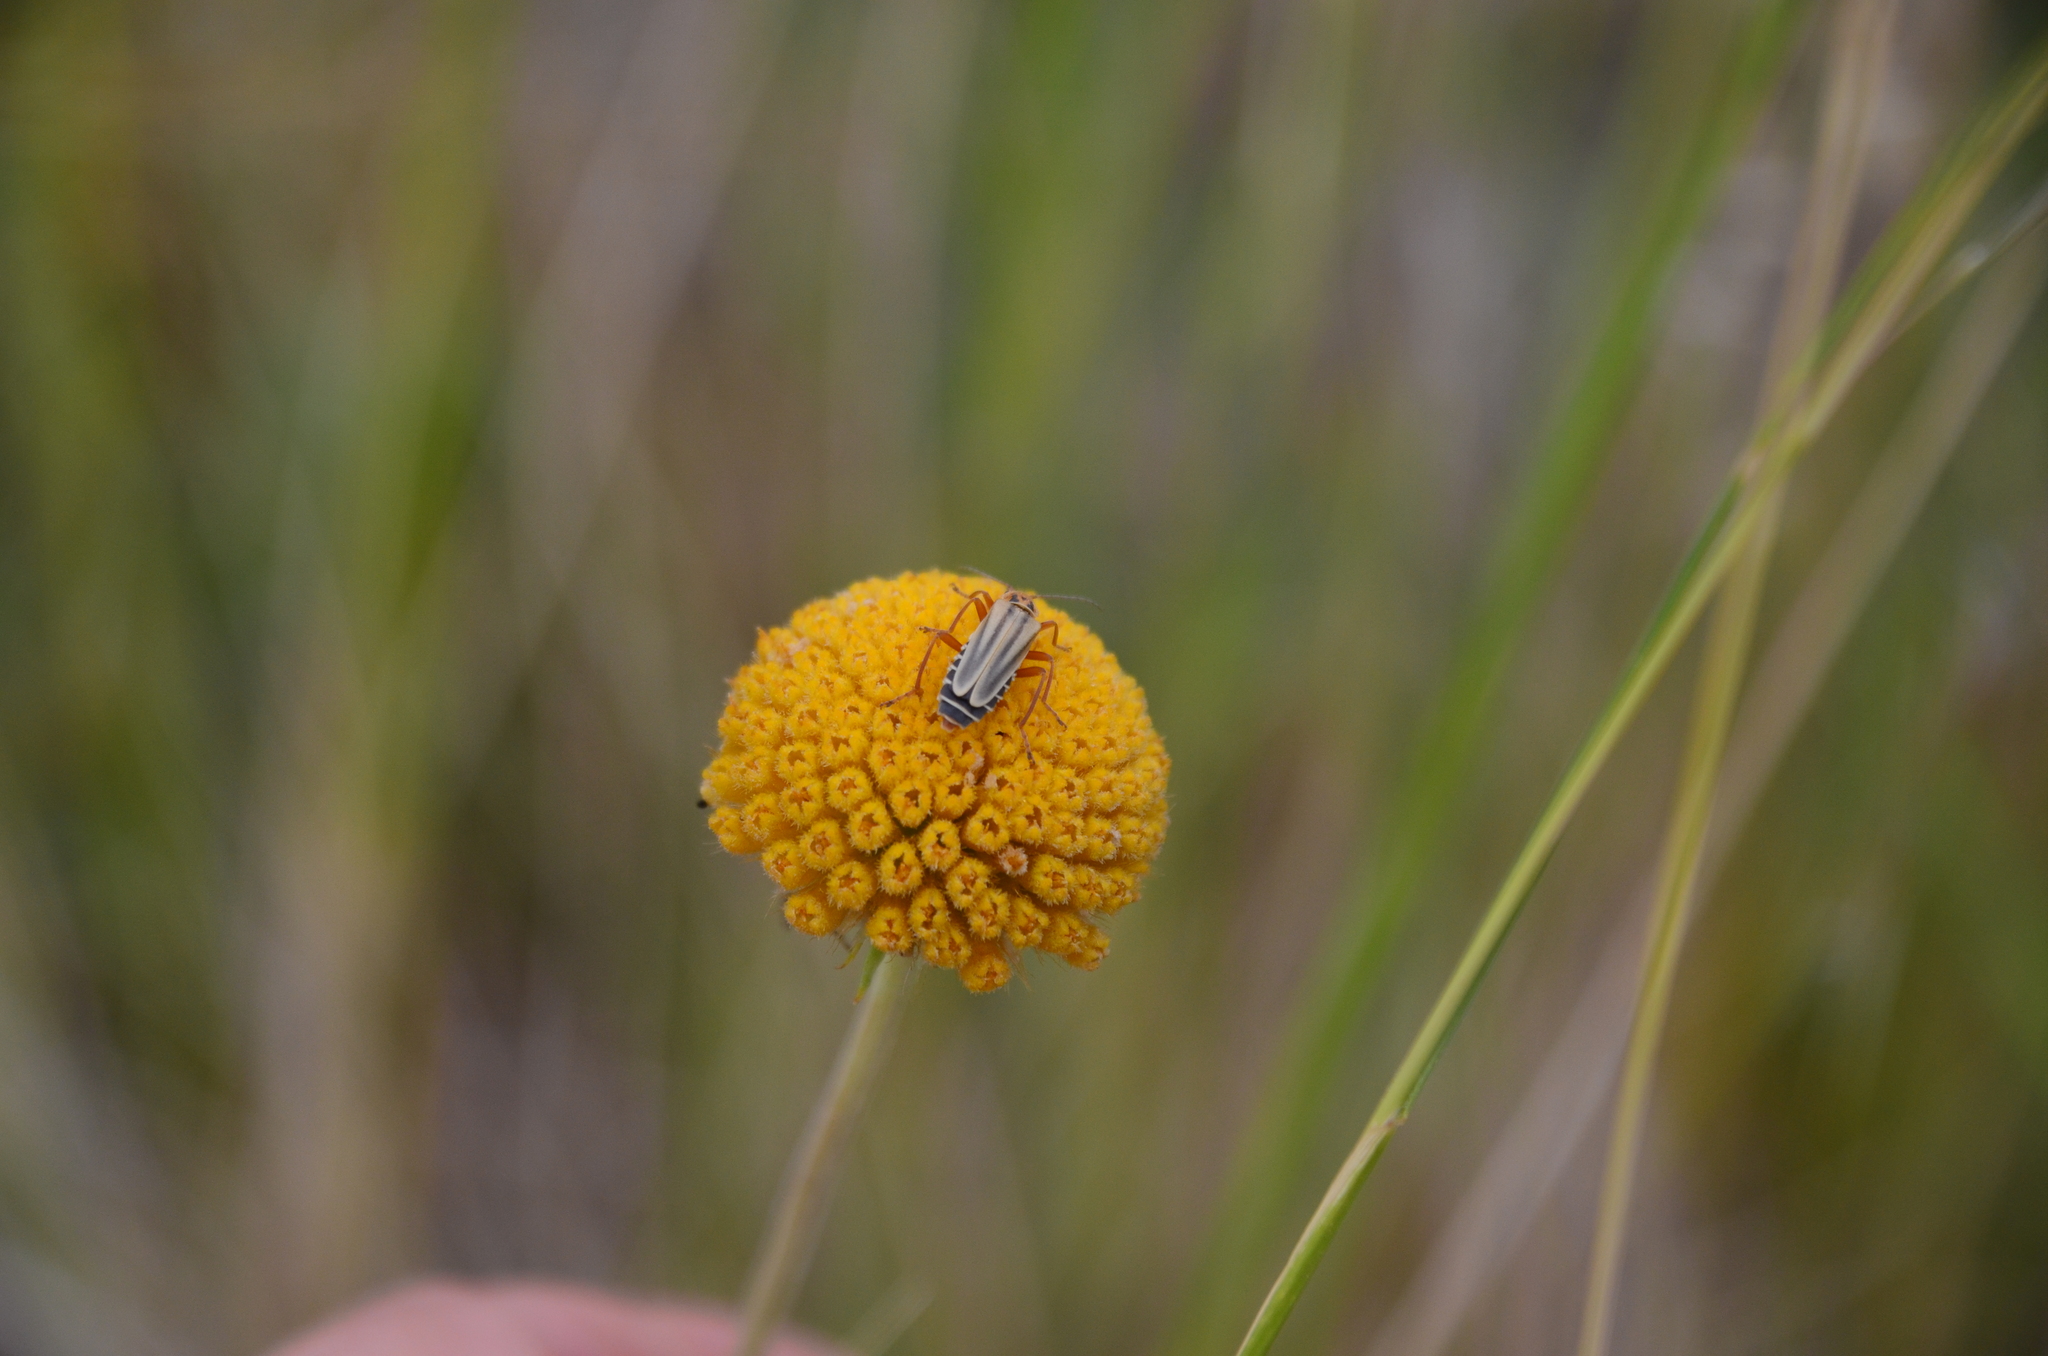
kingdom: Animalia
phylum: Arthropoda
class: Insecta
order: Coleoptera
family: Cantharidae
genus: Chauliognathus
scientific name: Chauliognathus
